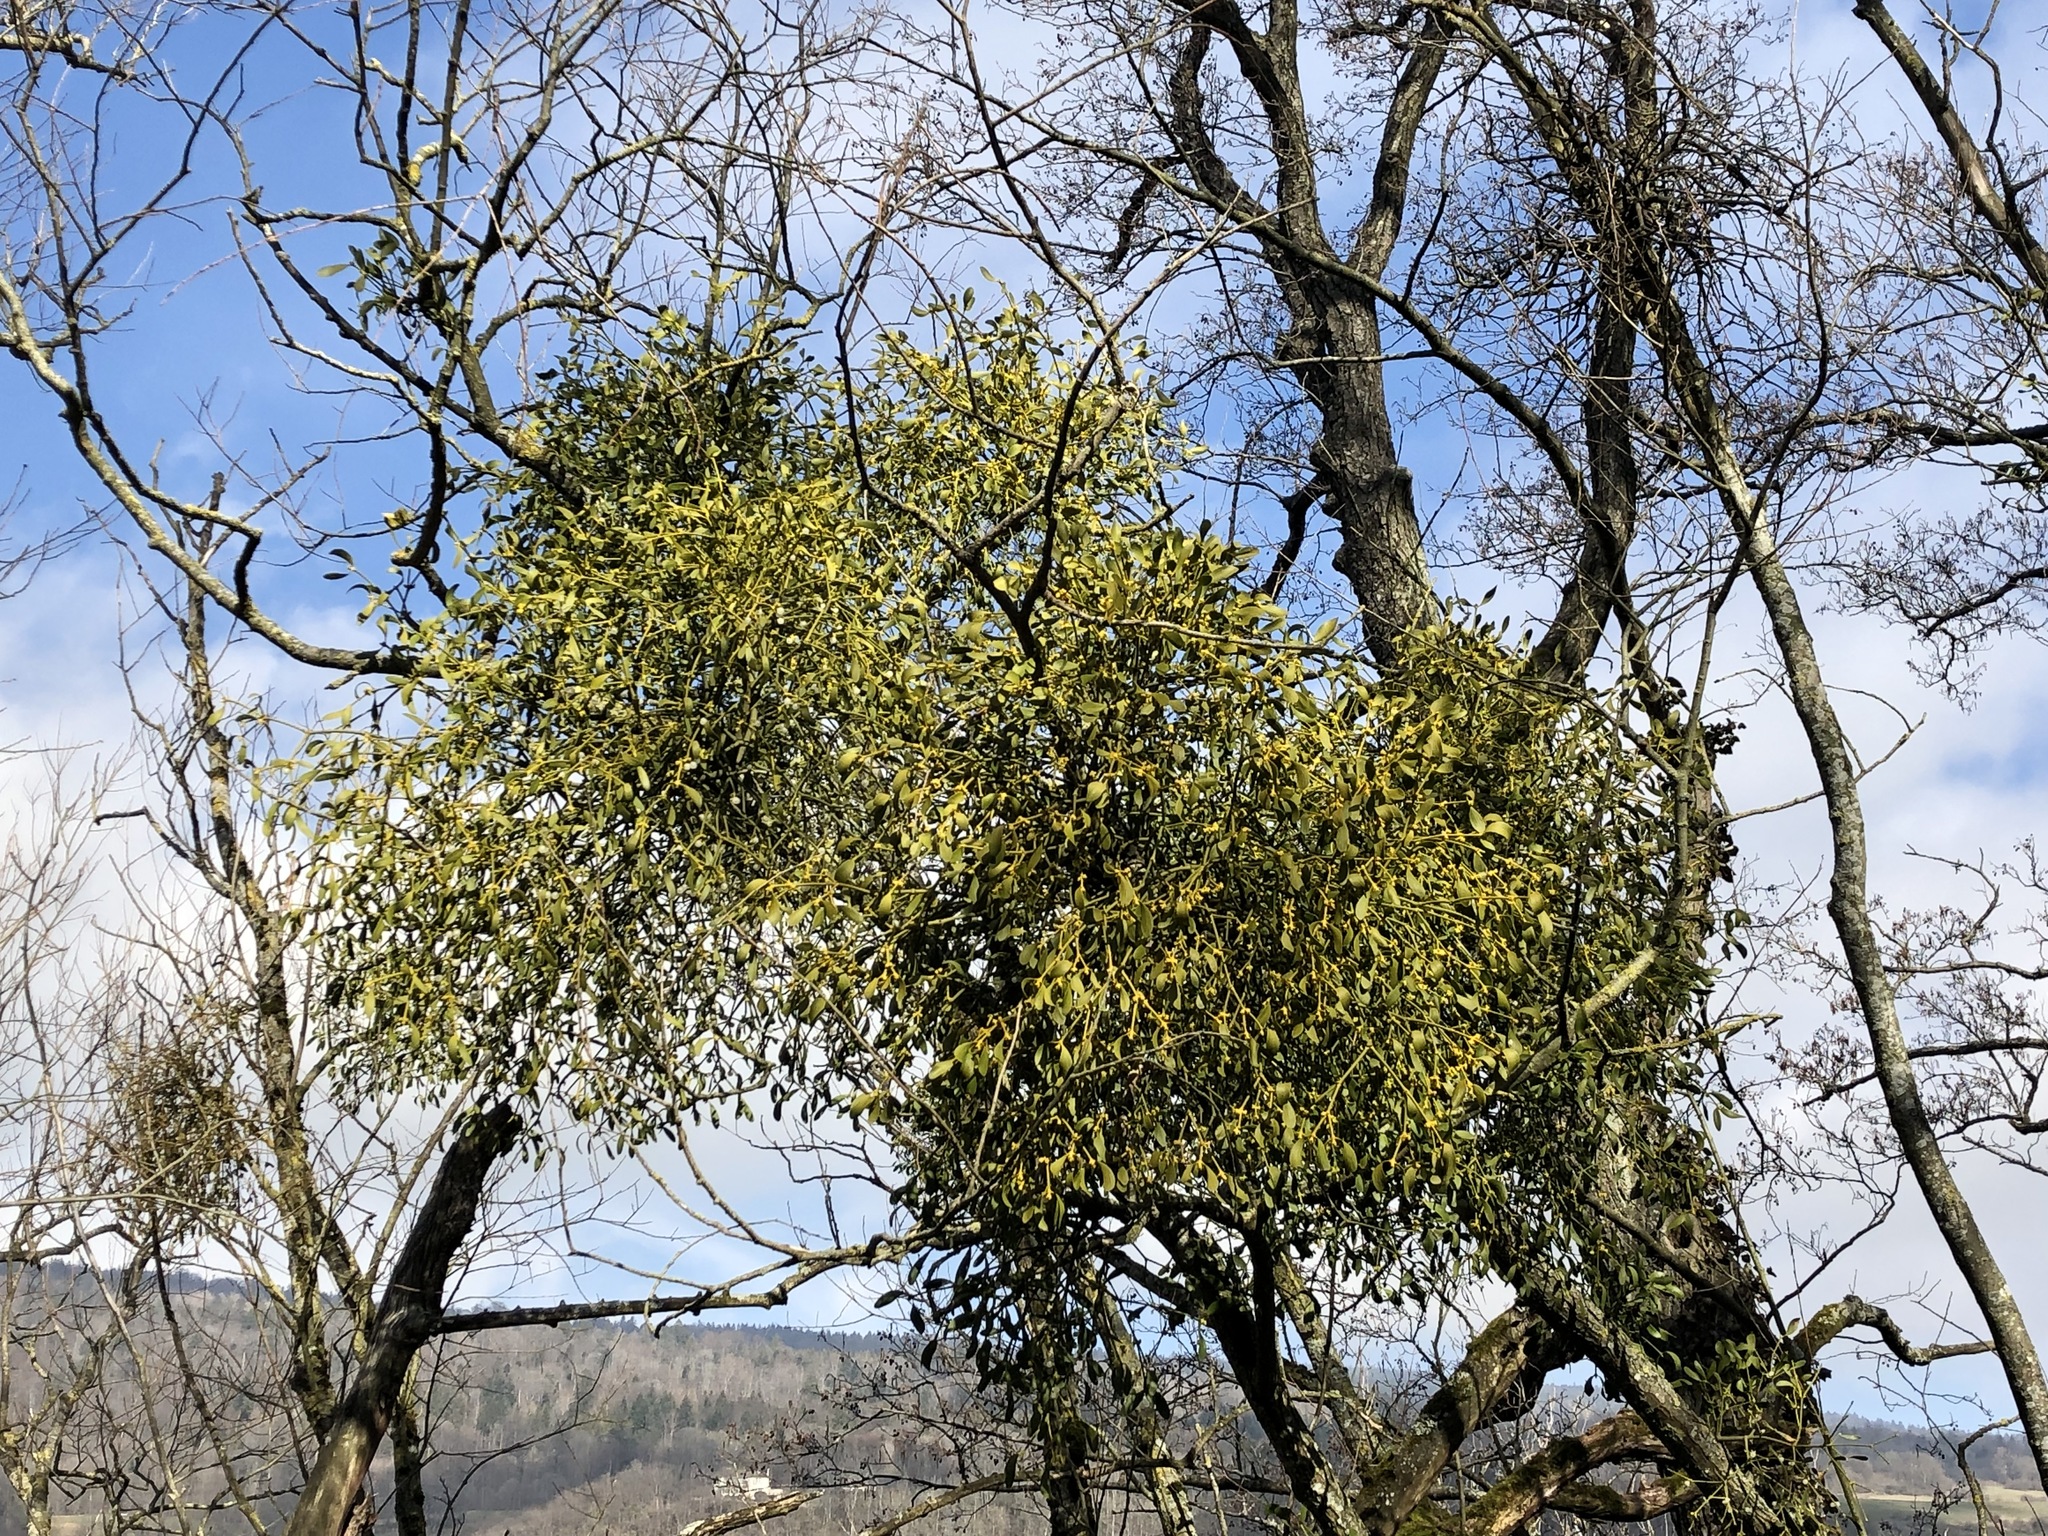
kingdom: Plantae
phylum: Tracheophyta
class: Magnoliopsida
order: Santalales
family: Viscaceae
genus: Viscum
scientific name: Viscum album
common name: Mistletoe
